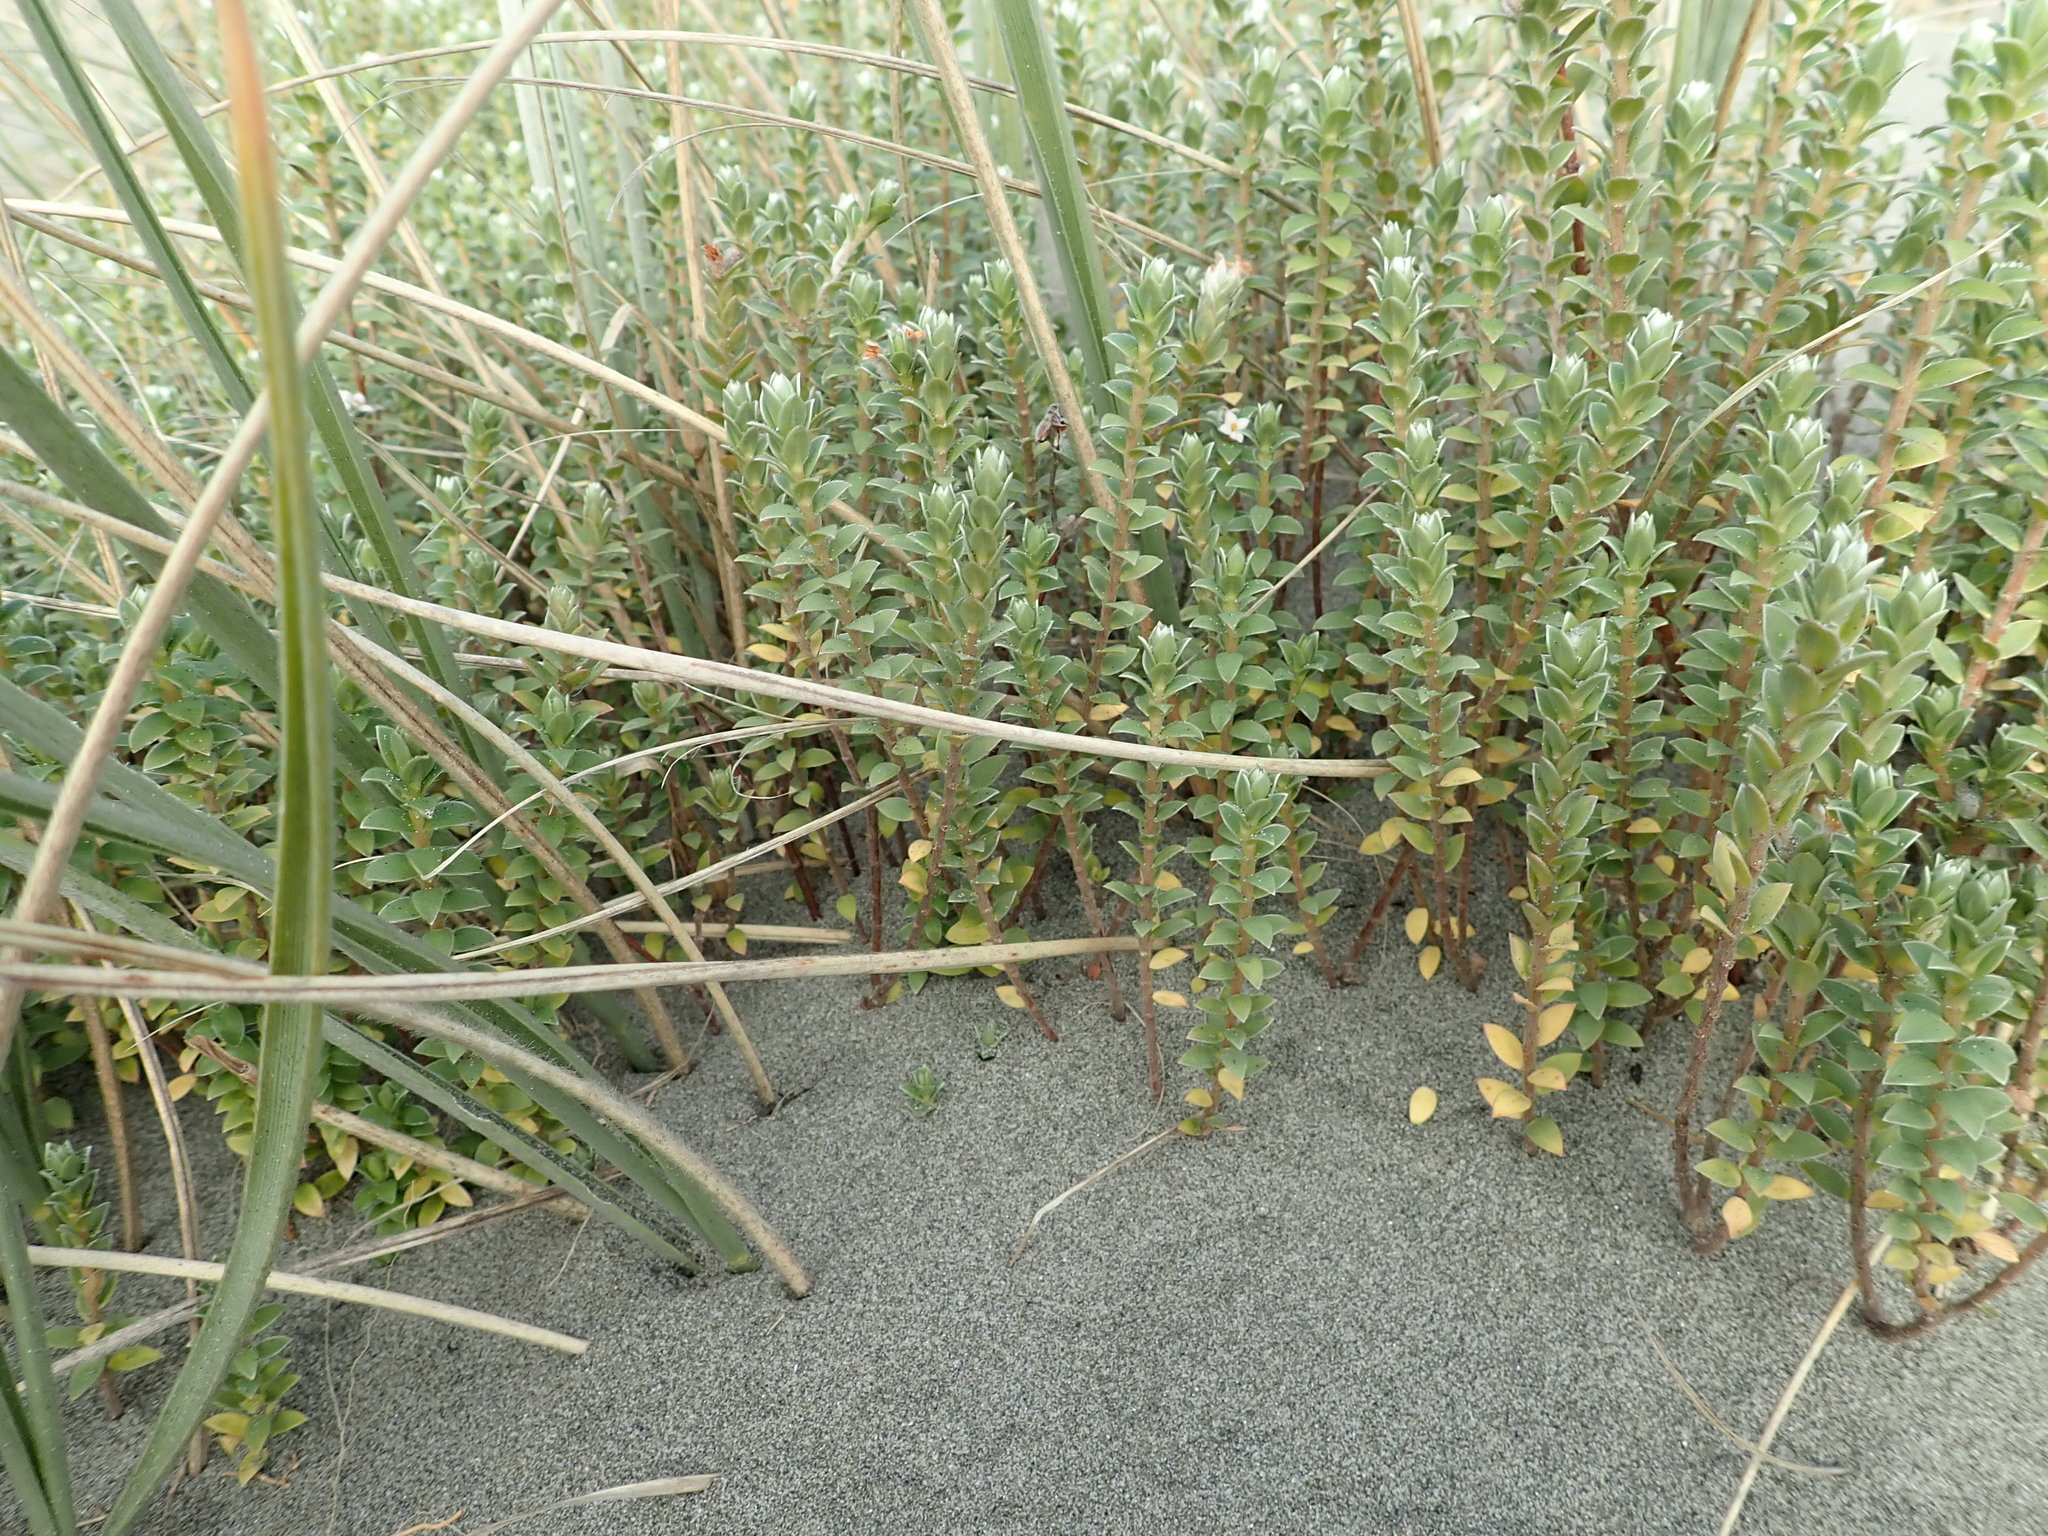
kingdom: Plantae
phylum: Tracheophyta
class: Magnoliopsida
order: Malvales
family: Thymelaeaceae
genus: Pimelea
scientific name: Pimelea villosa
